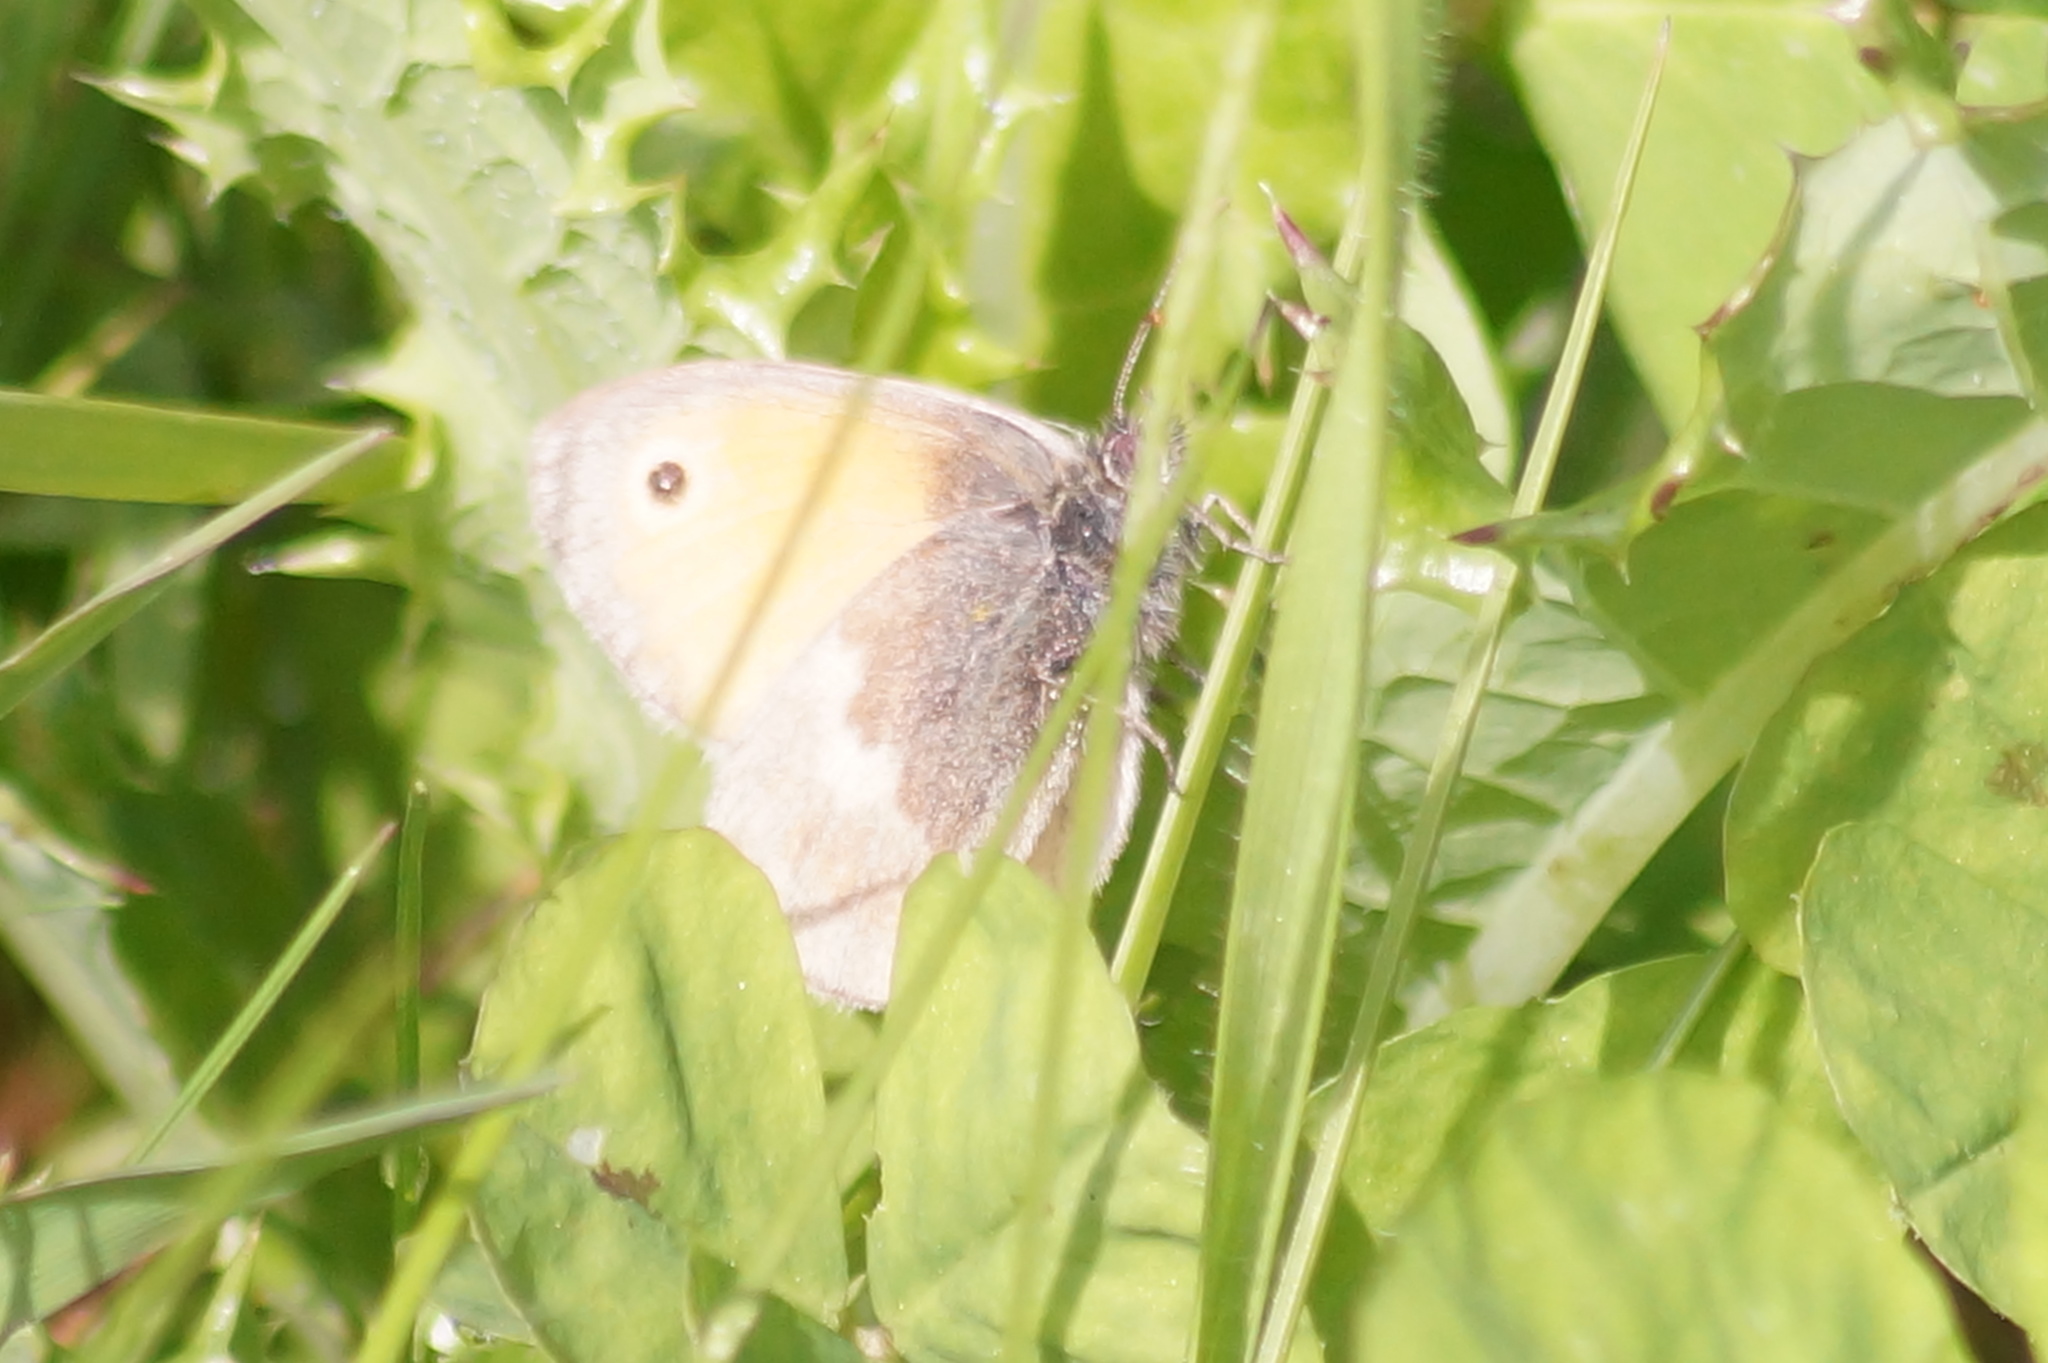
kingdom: Animalia
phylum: Arthropoda
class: Insecta
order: Lepidoptera
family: Nymphalidae
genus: Coenonympha
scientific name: Coenonympha pamphilus
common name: Small heath
